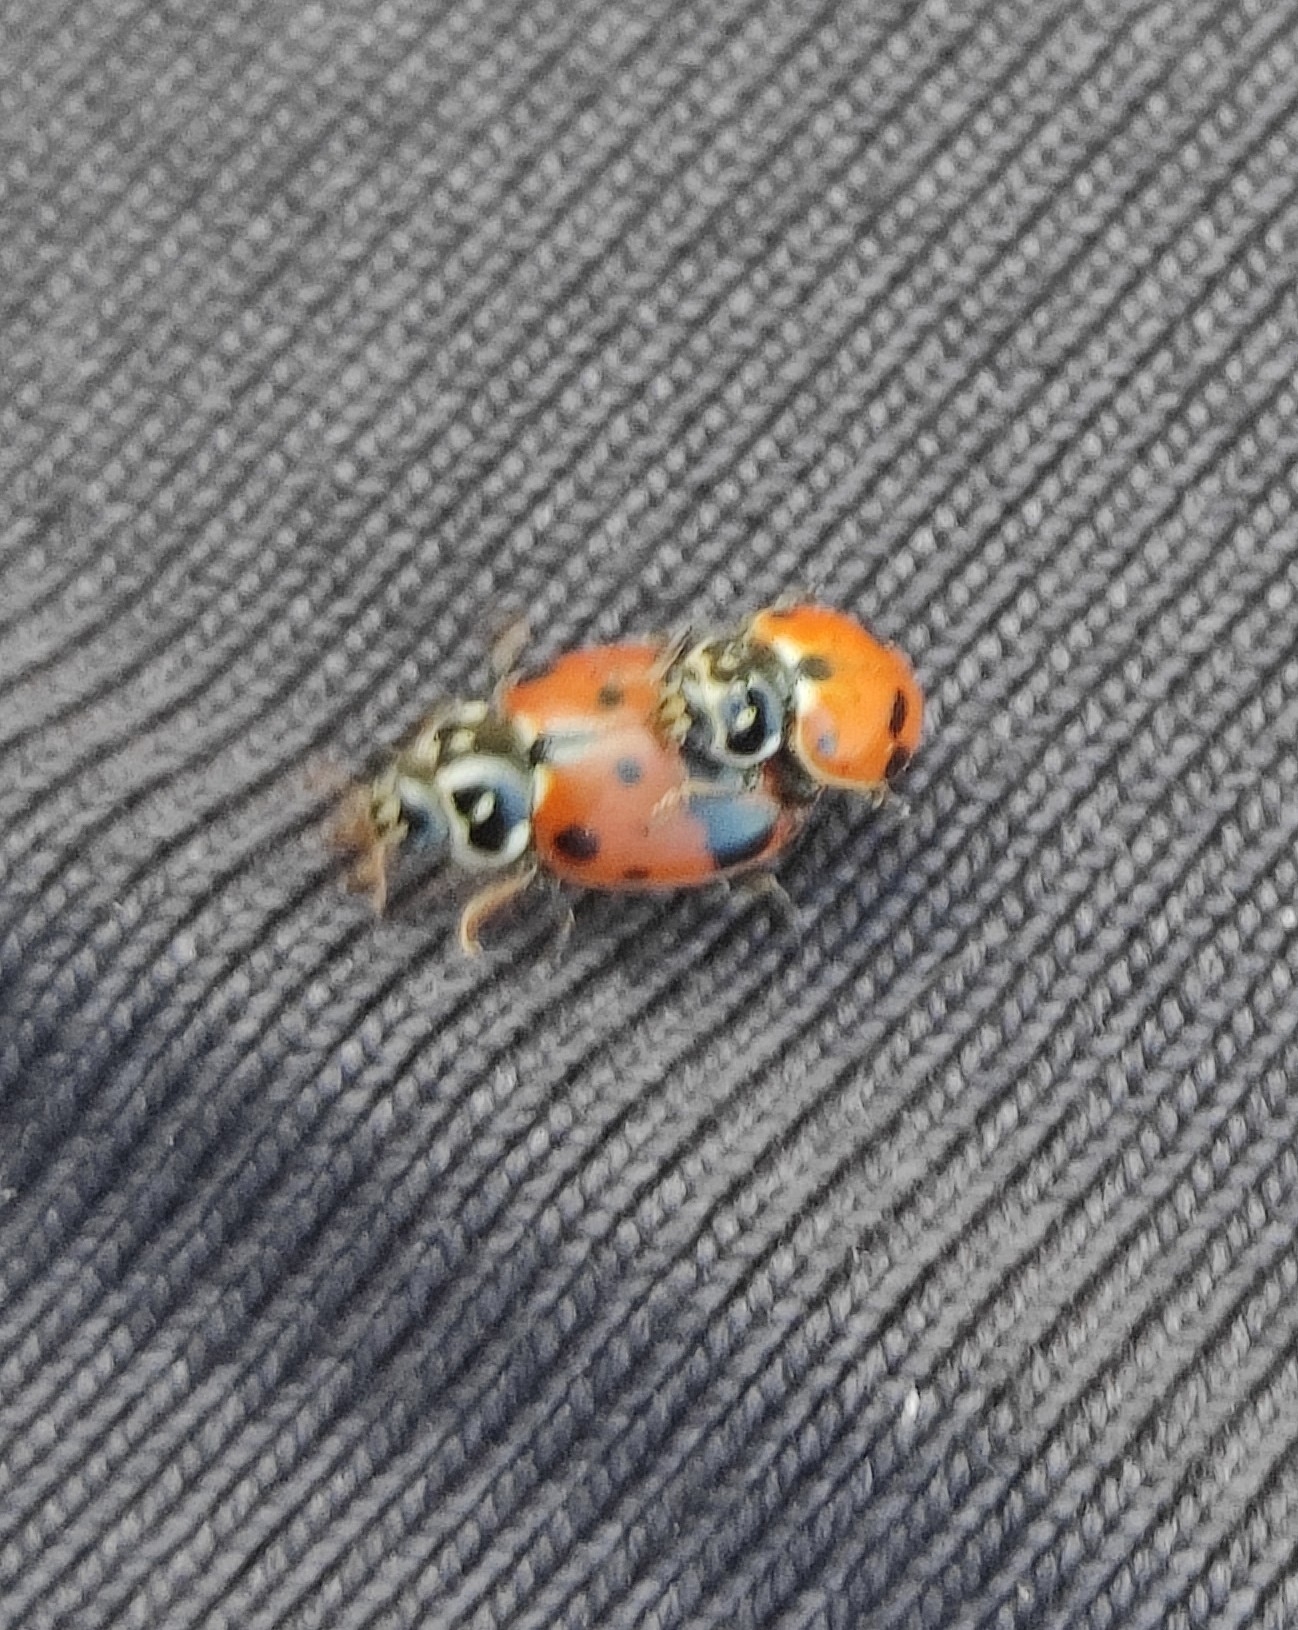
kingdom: Animalia
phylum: Arthropoda
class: Insecta
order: Coleoptera
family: Coccinellidae
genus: Hippodamia
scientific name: Hippodamia variegata
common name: Ladybird beetle
